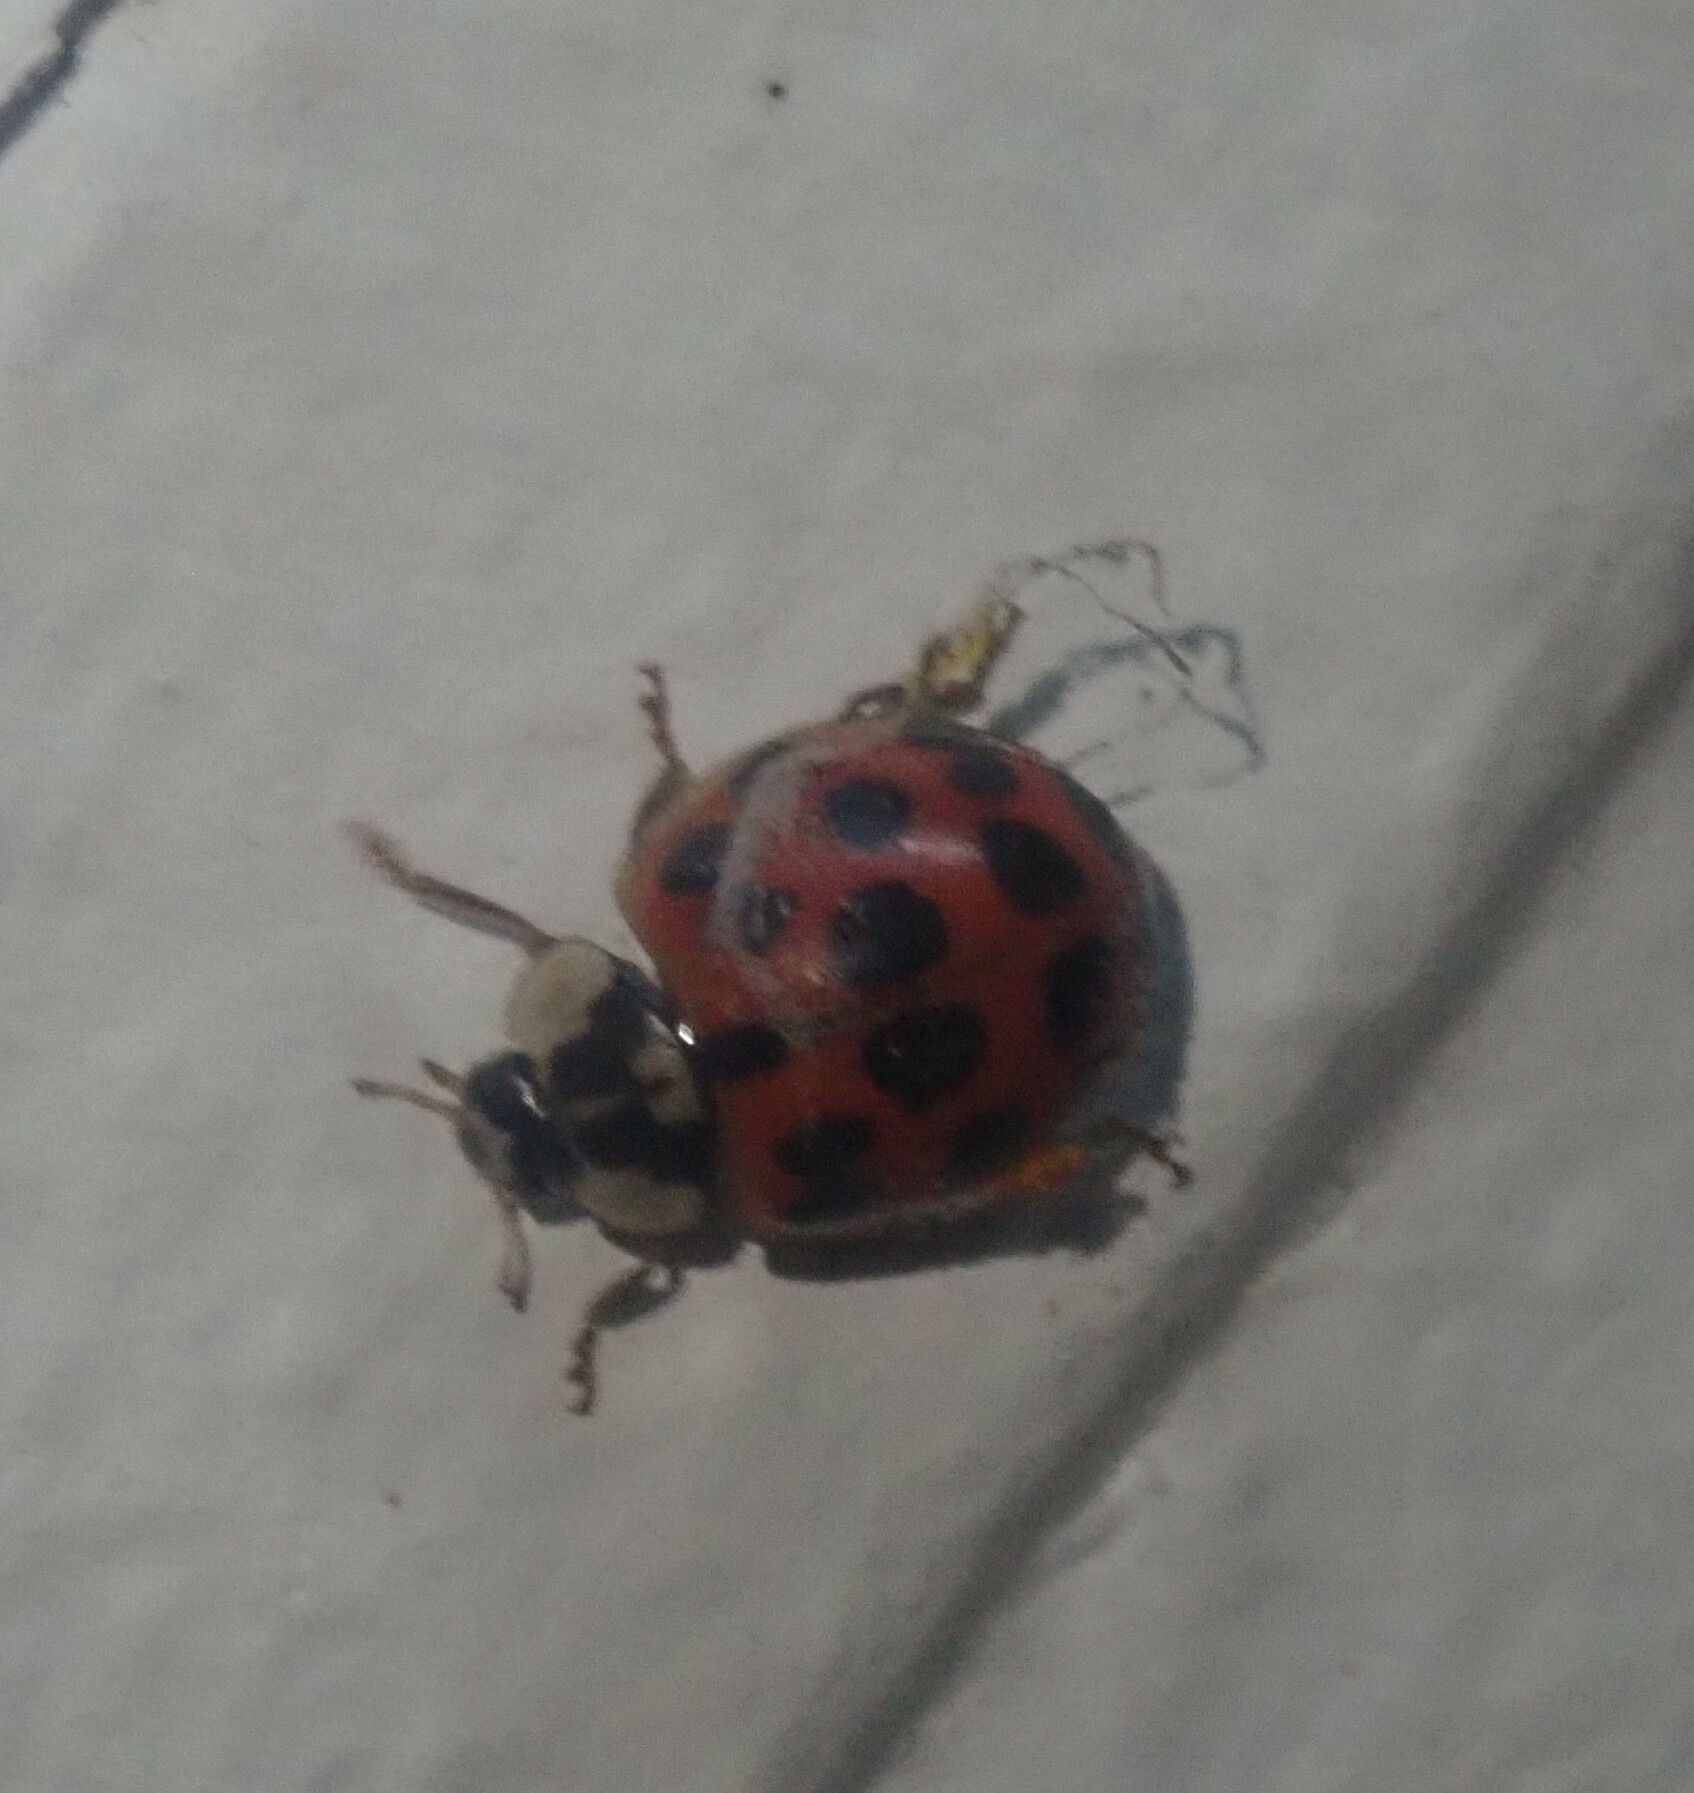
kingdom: Animalia
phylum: Arthropoda
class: Insecta
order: Coleoptera
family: Coccinellidae
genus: Harmonia
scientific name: Harmonia axyridis
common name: Harlequin ladybird
